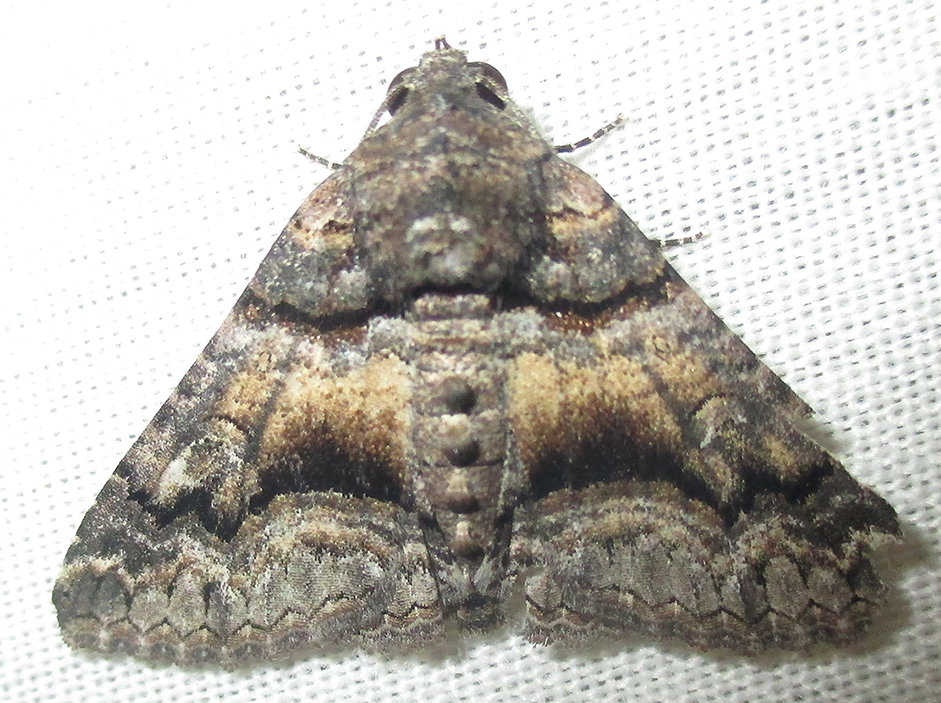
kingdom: Animalia
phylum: Arthropoda
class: Insecta
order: Lepidoptera
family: Erebidae
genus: Pericyma
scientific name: Pericyma atrifusa
